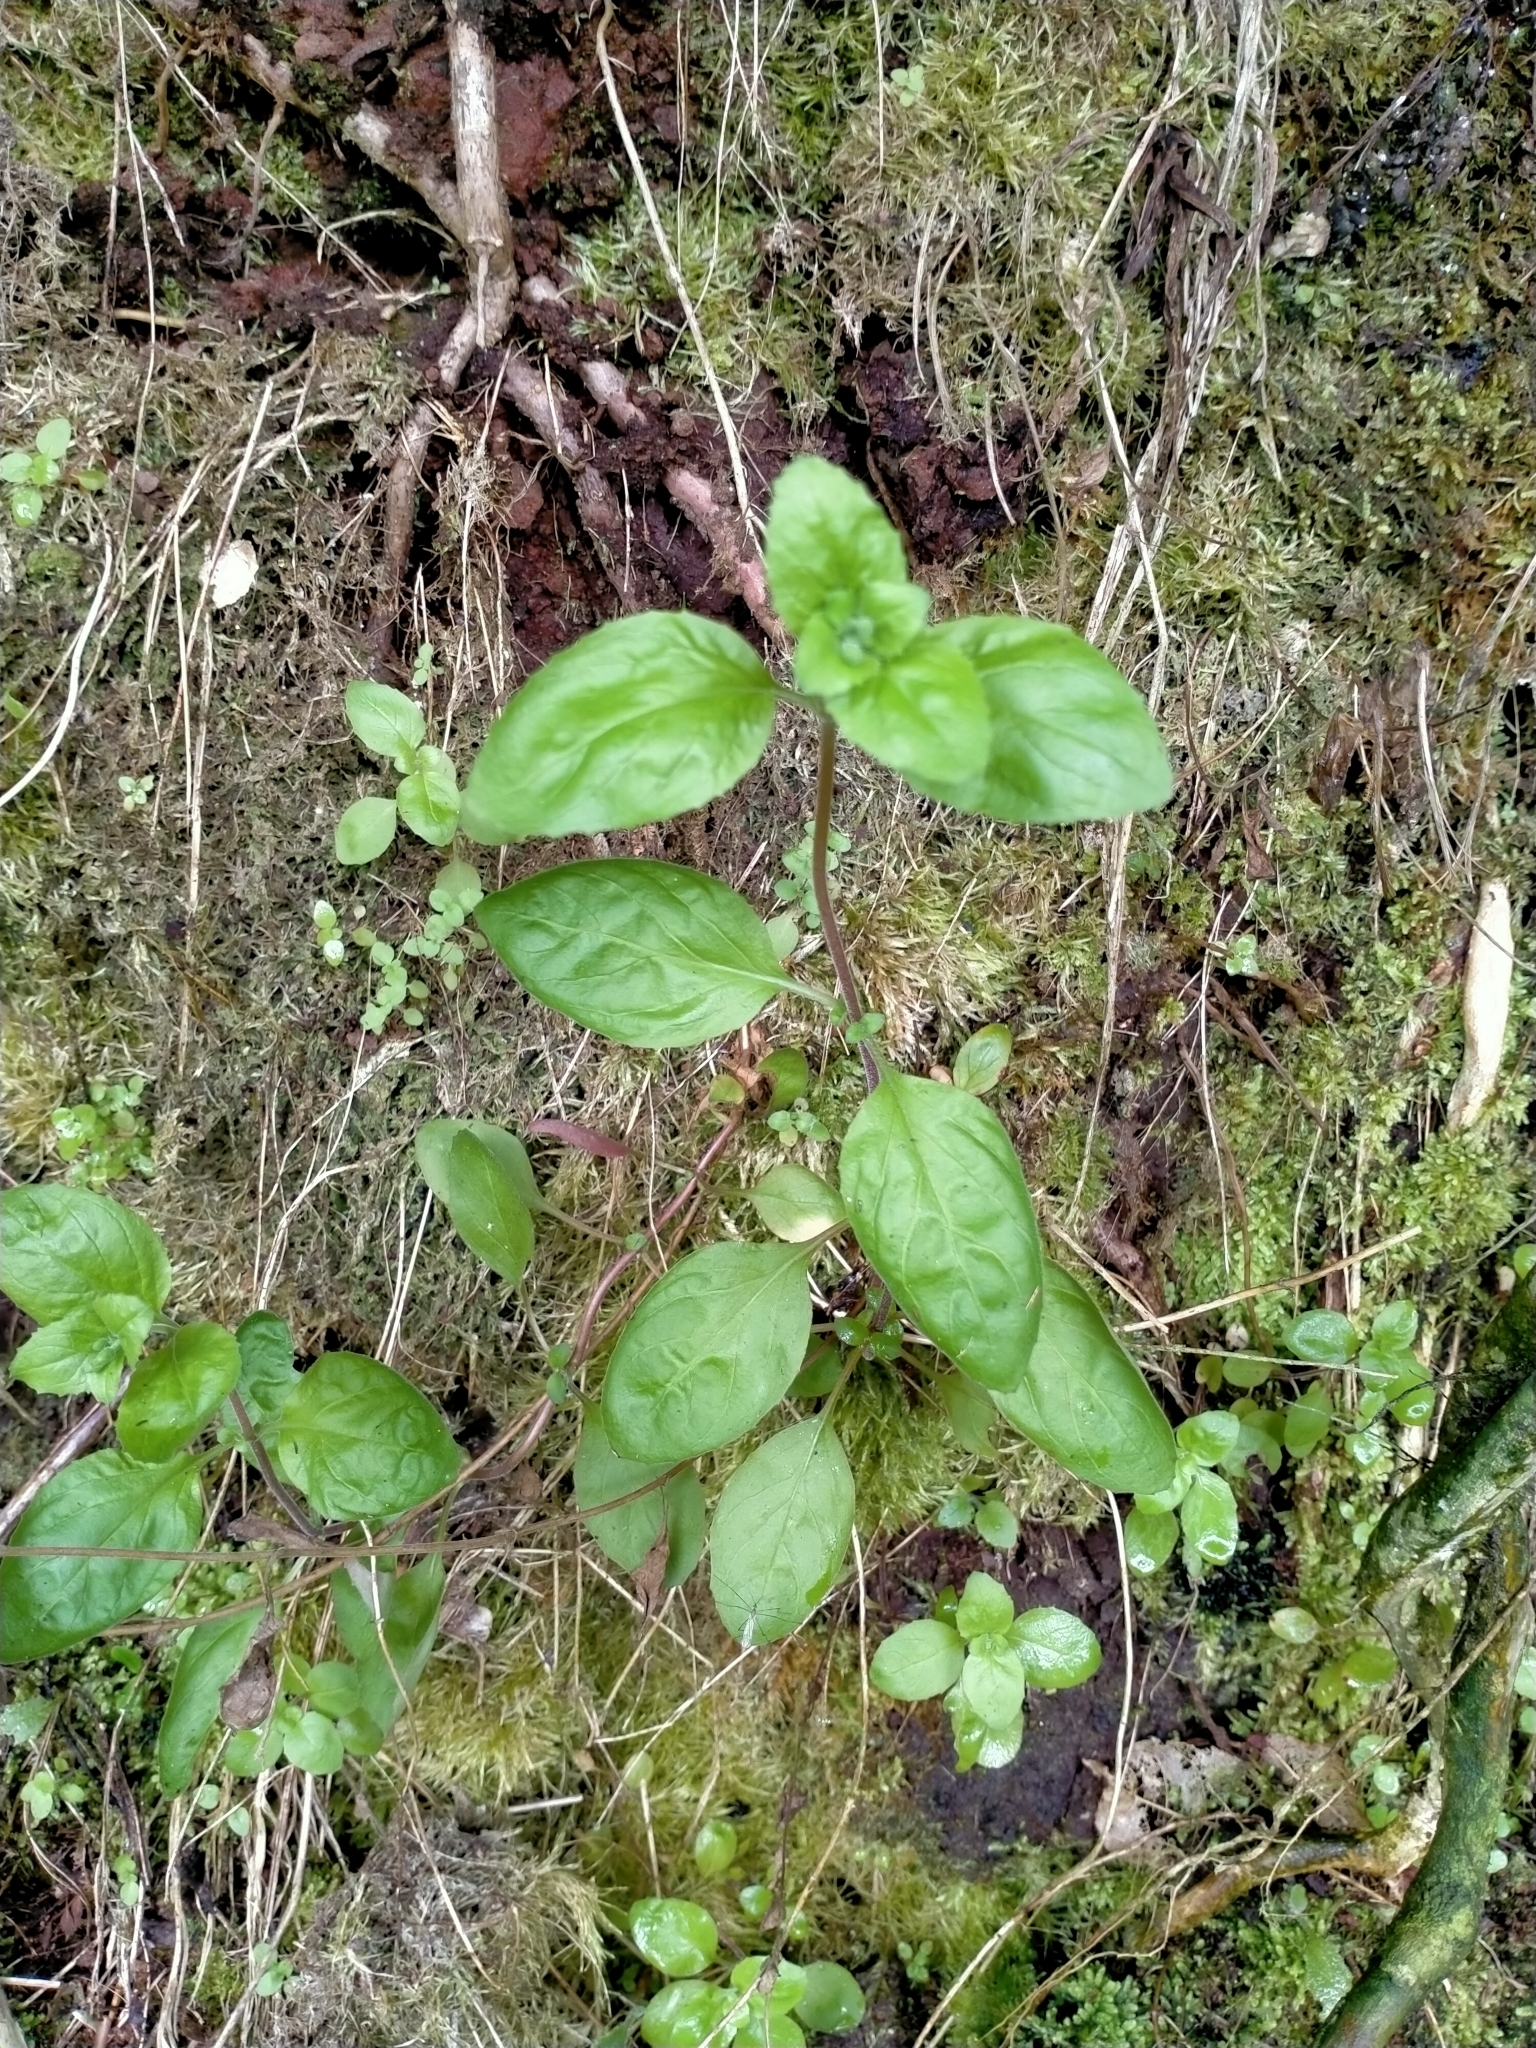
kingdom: Plantae
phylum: Tracheophyta
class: Magnoliopsida
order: Myrtales
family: Onagraceae
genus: Epilobium
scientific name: Epilobium pubens
